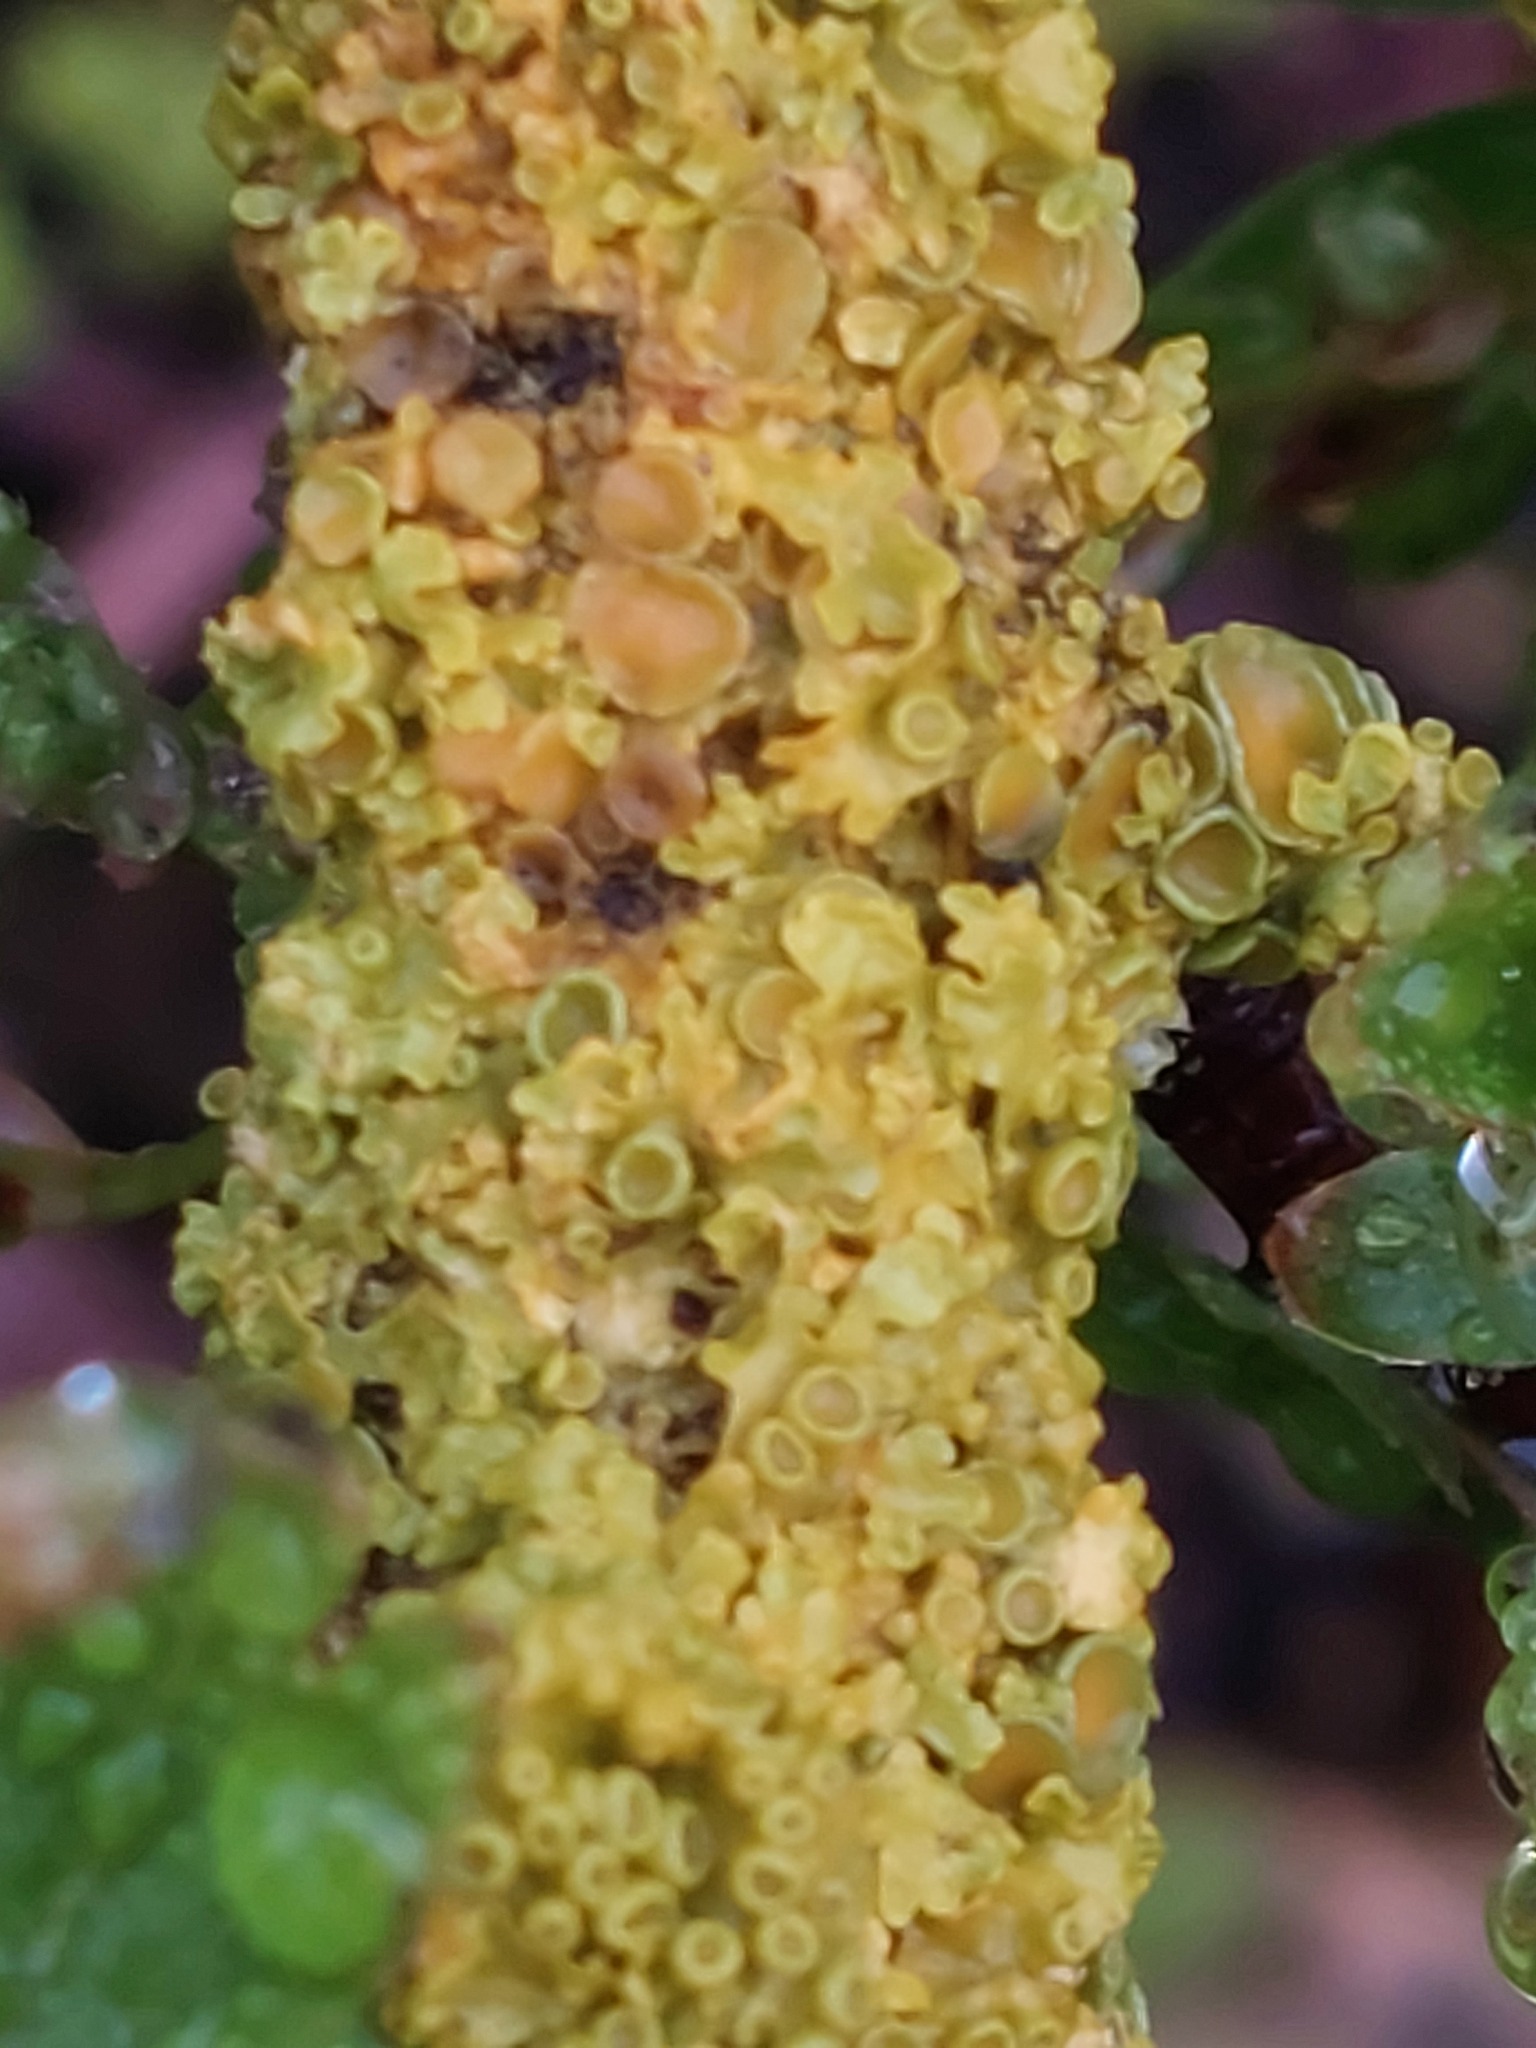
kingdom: Fungi
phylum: Ascomycota
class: Lecanoromycetes
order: Teloschistales
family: Teloschistaceae
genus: Xanthoria
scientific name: Xanthoria parietina
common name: Common orange lichen
